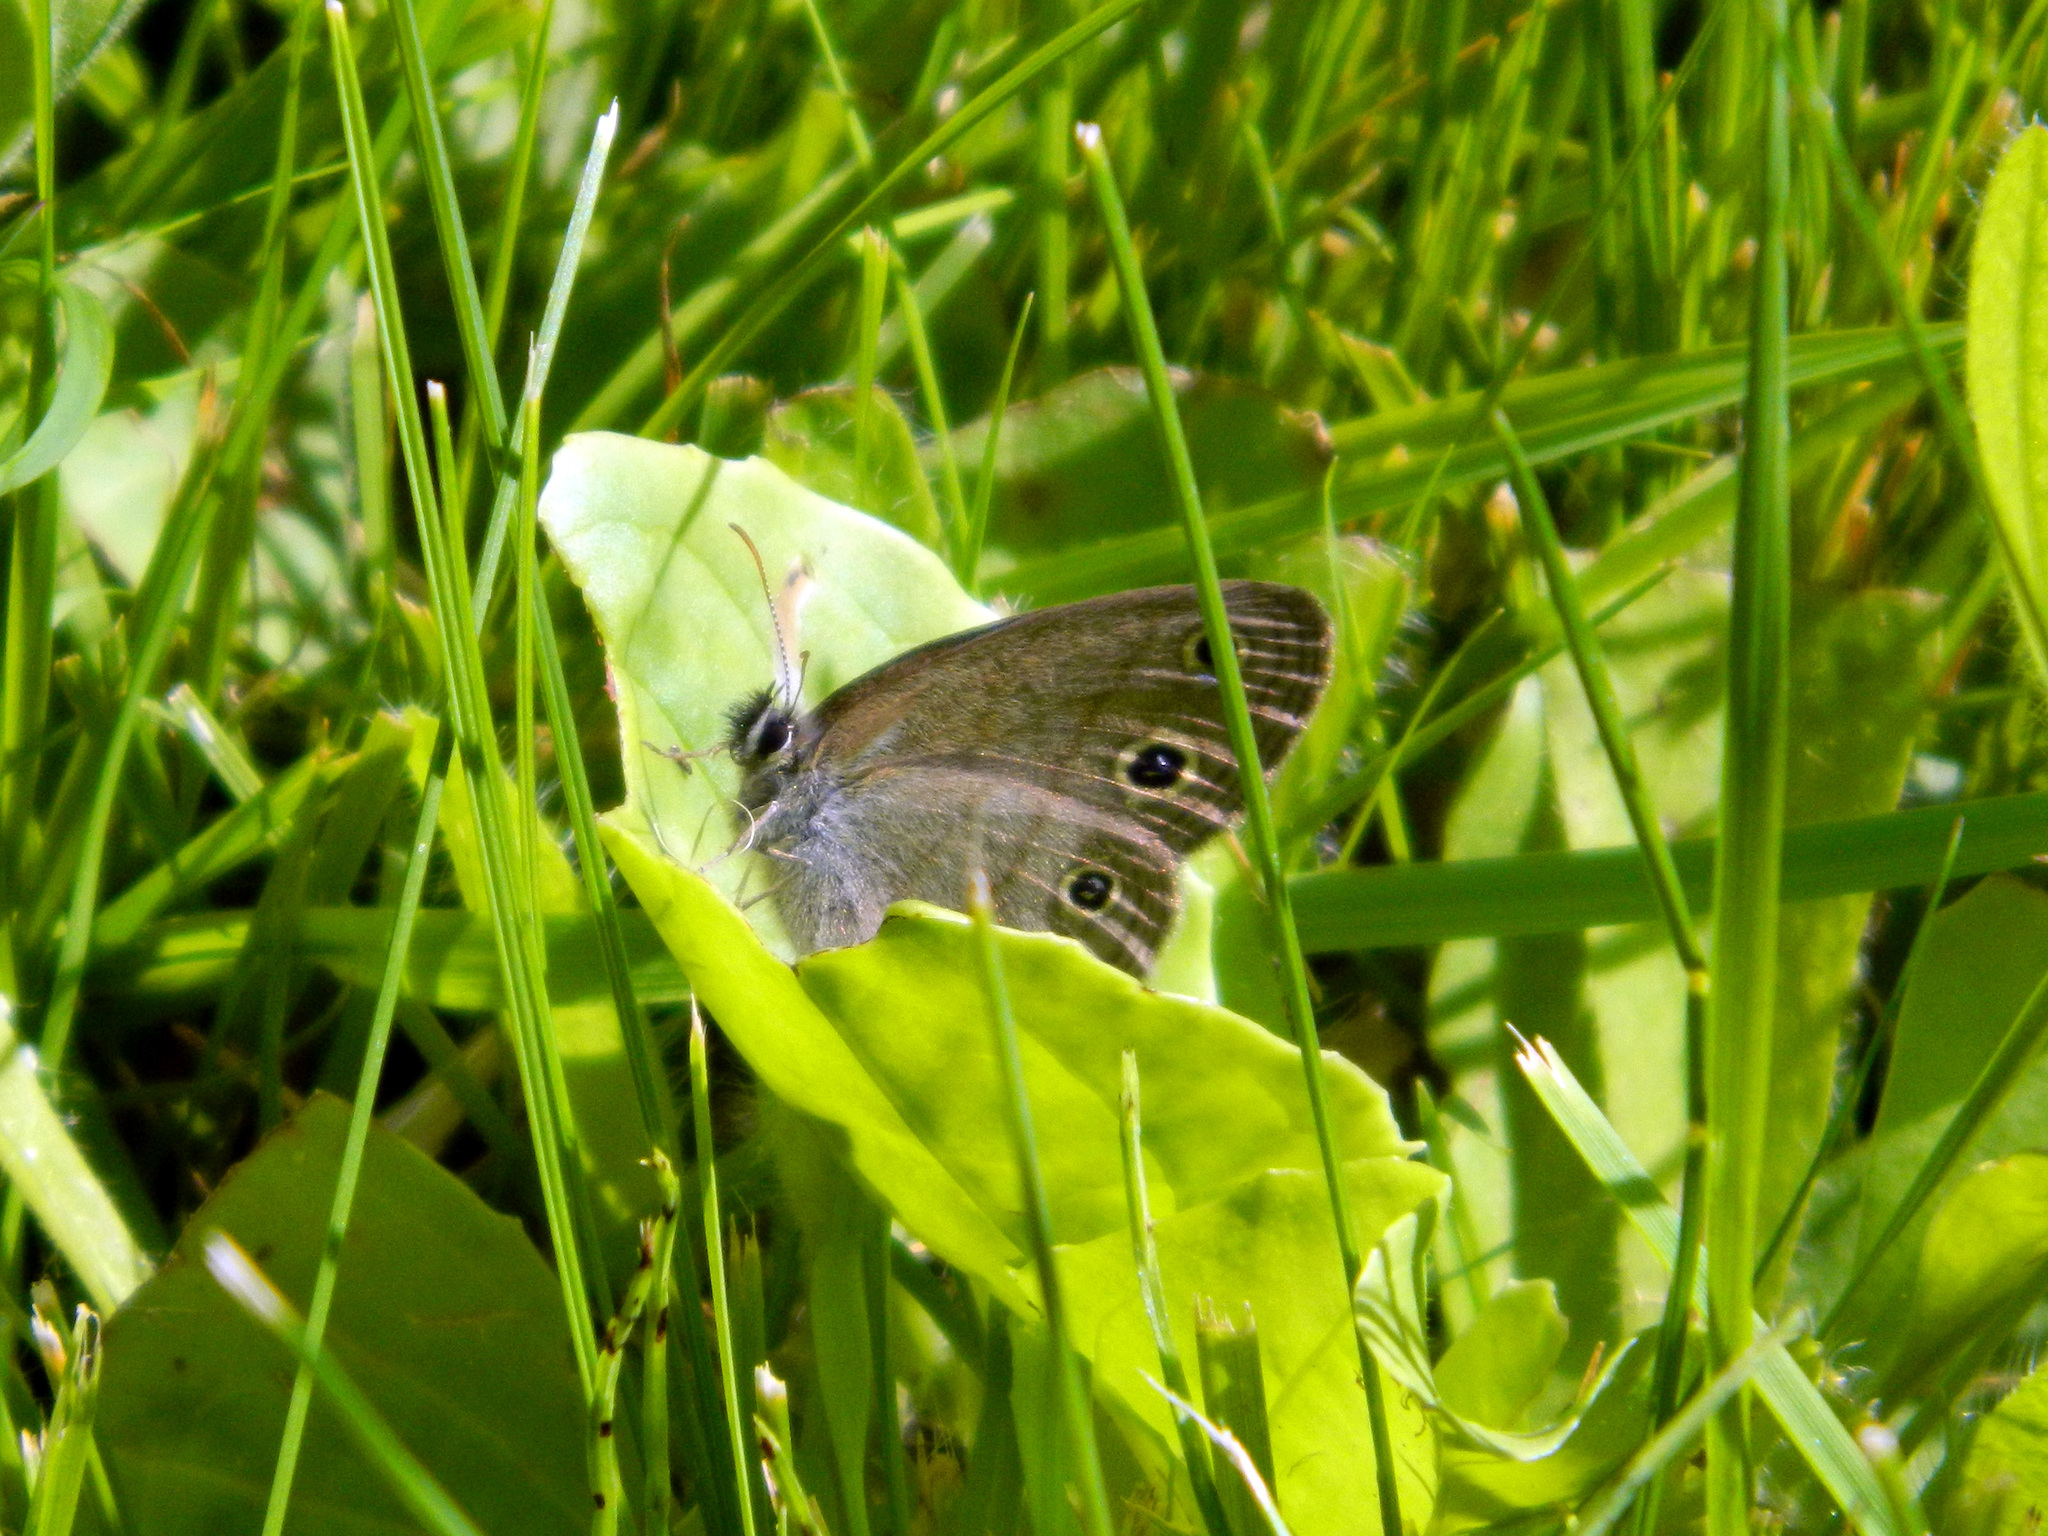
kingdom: Animalia
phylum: Arthropoda
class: Insecta
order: Lepidoptera
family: Nymphalidae
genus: Euptychia
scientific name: Euptychia cymela
